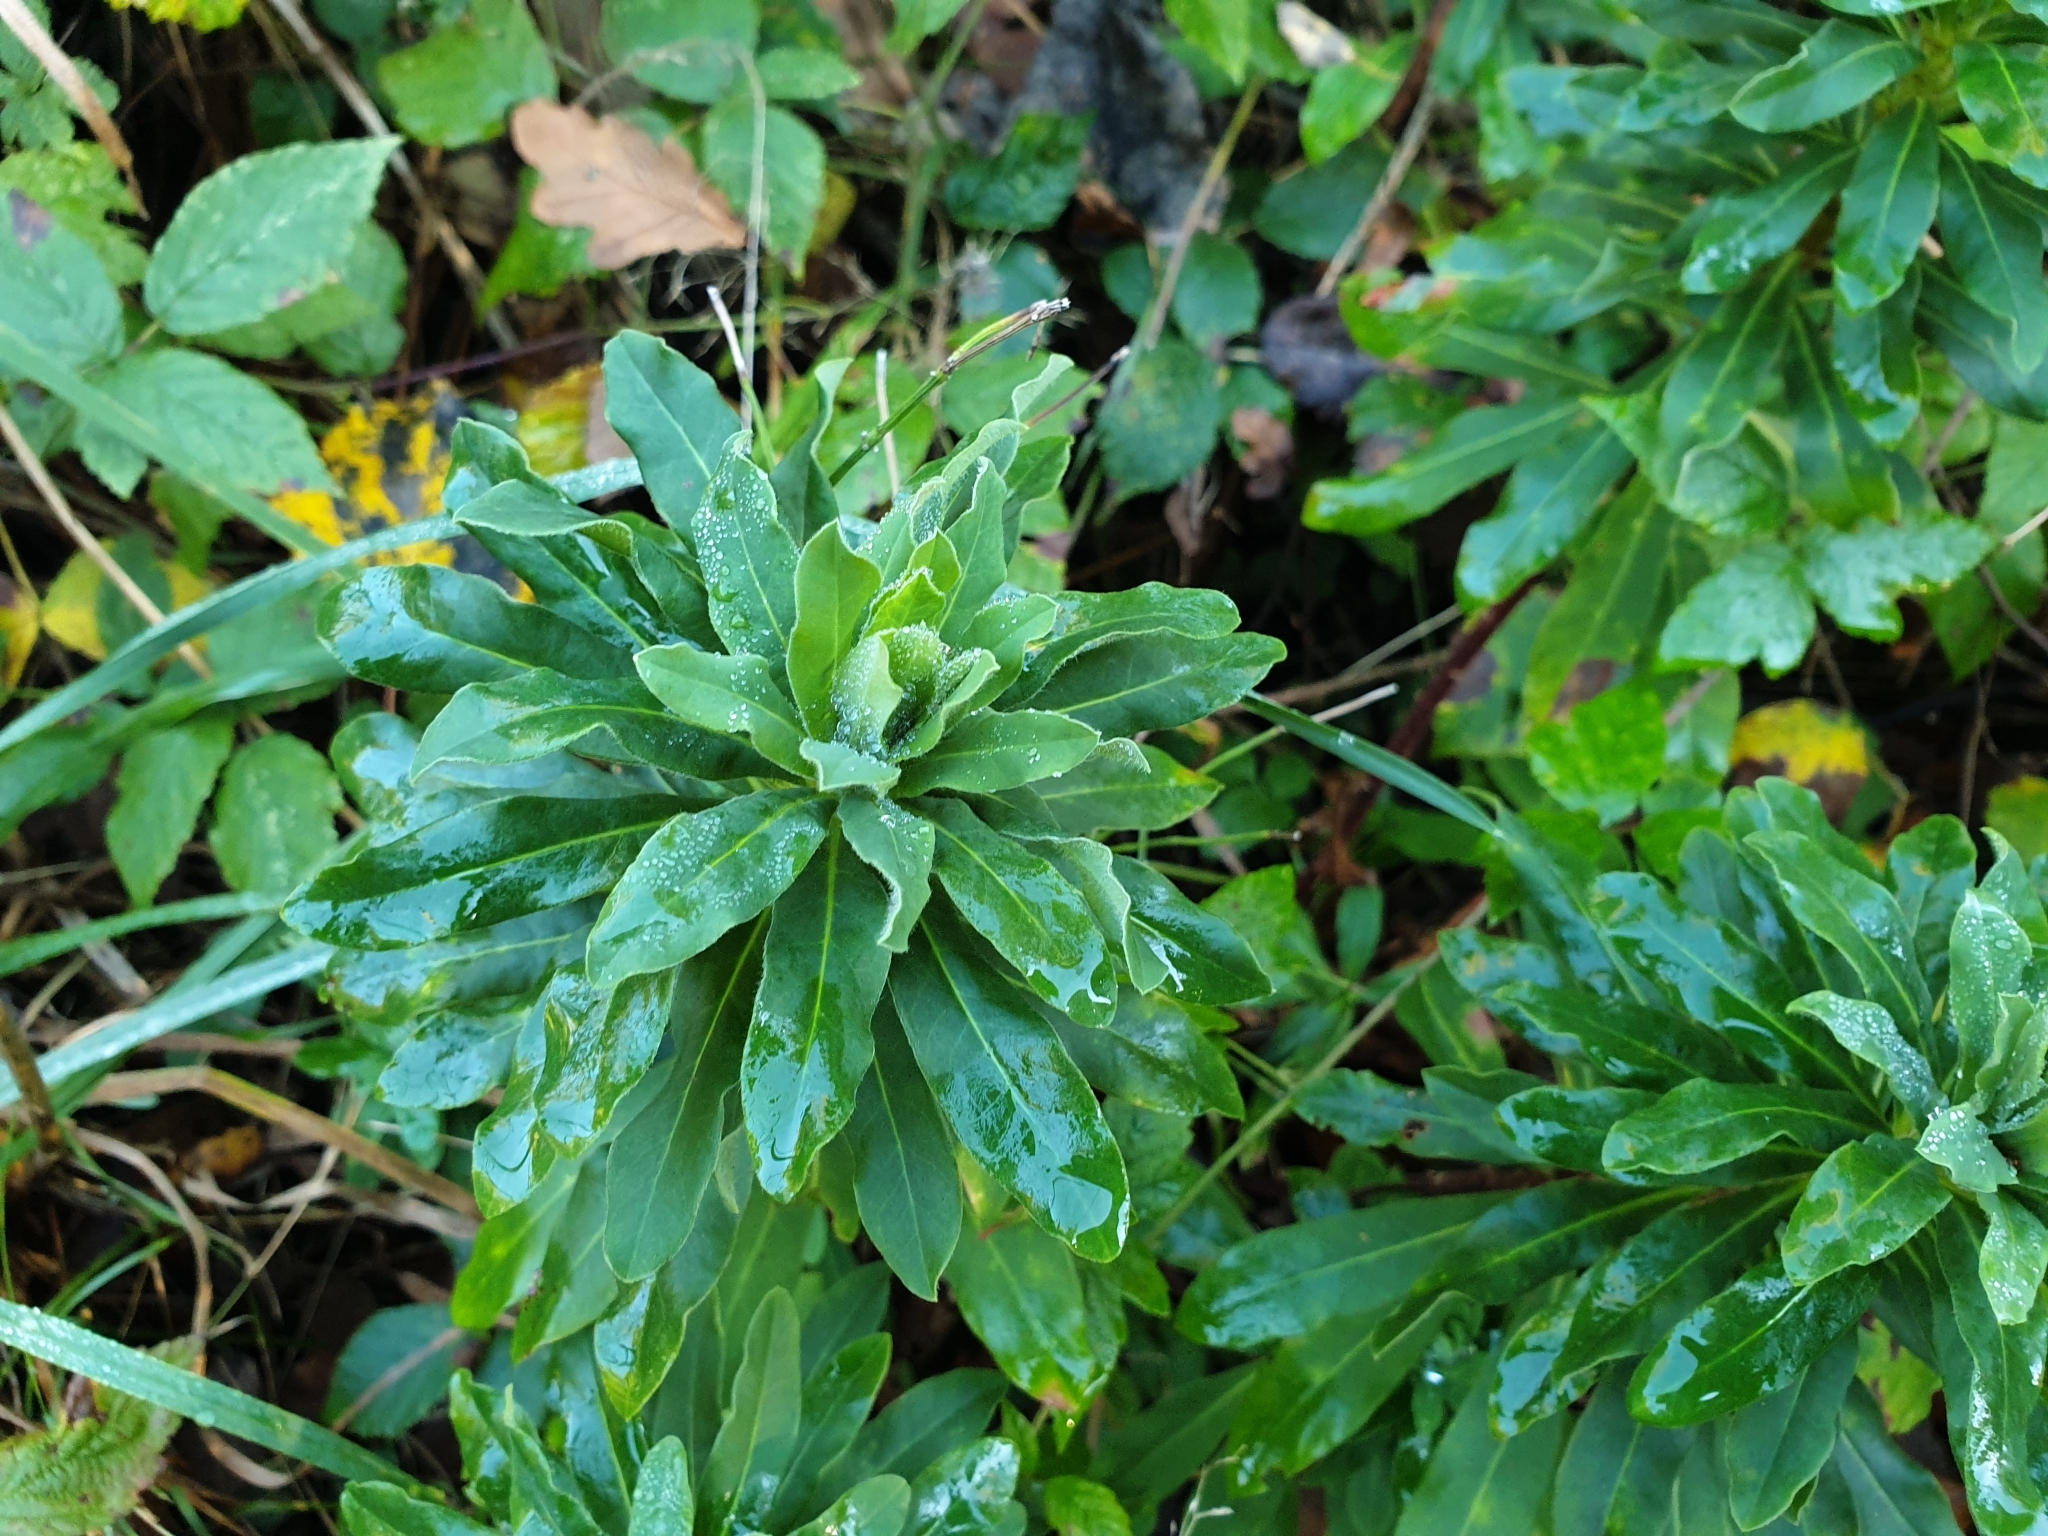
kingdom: Plantae
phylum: Tracheophyta
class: Magnoliopsida
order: Malpighiales
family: Euphorbiaceae
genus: Euphorbia
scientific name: Euphorbia amygdaloides
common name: Wood spurge
